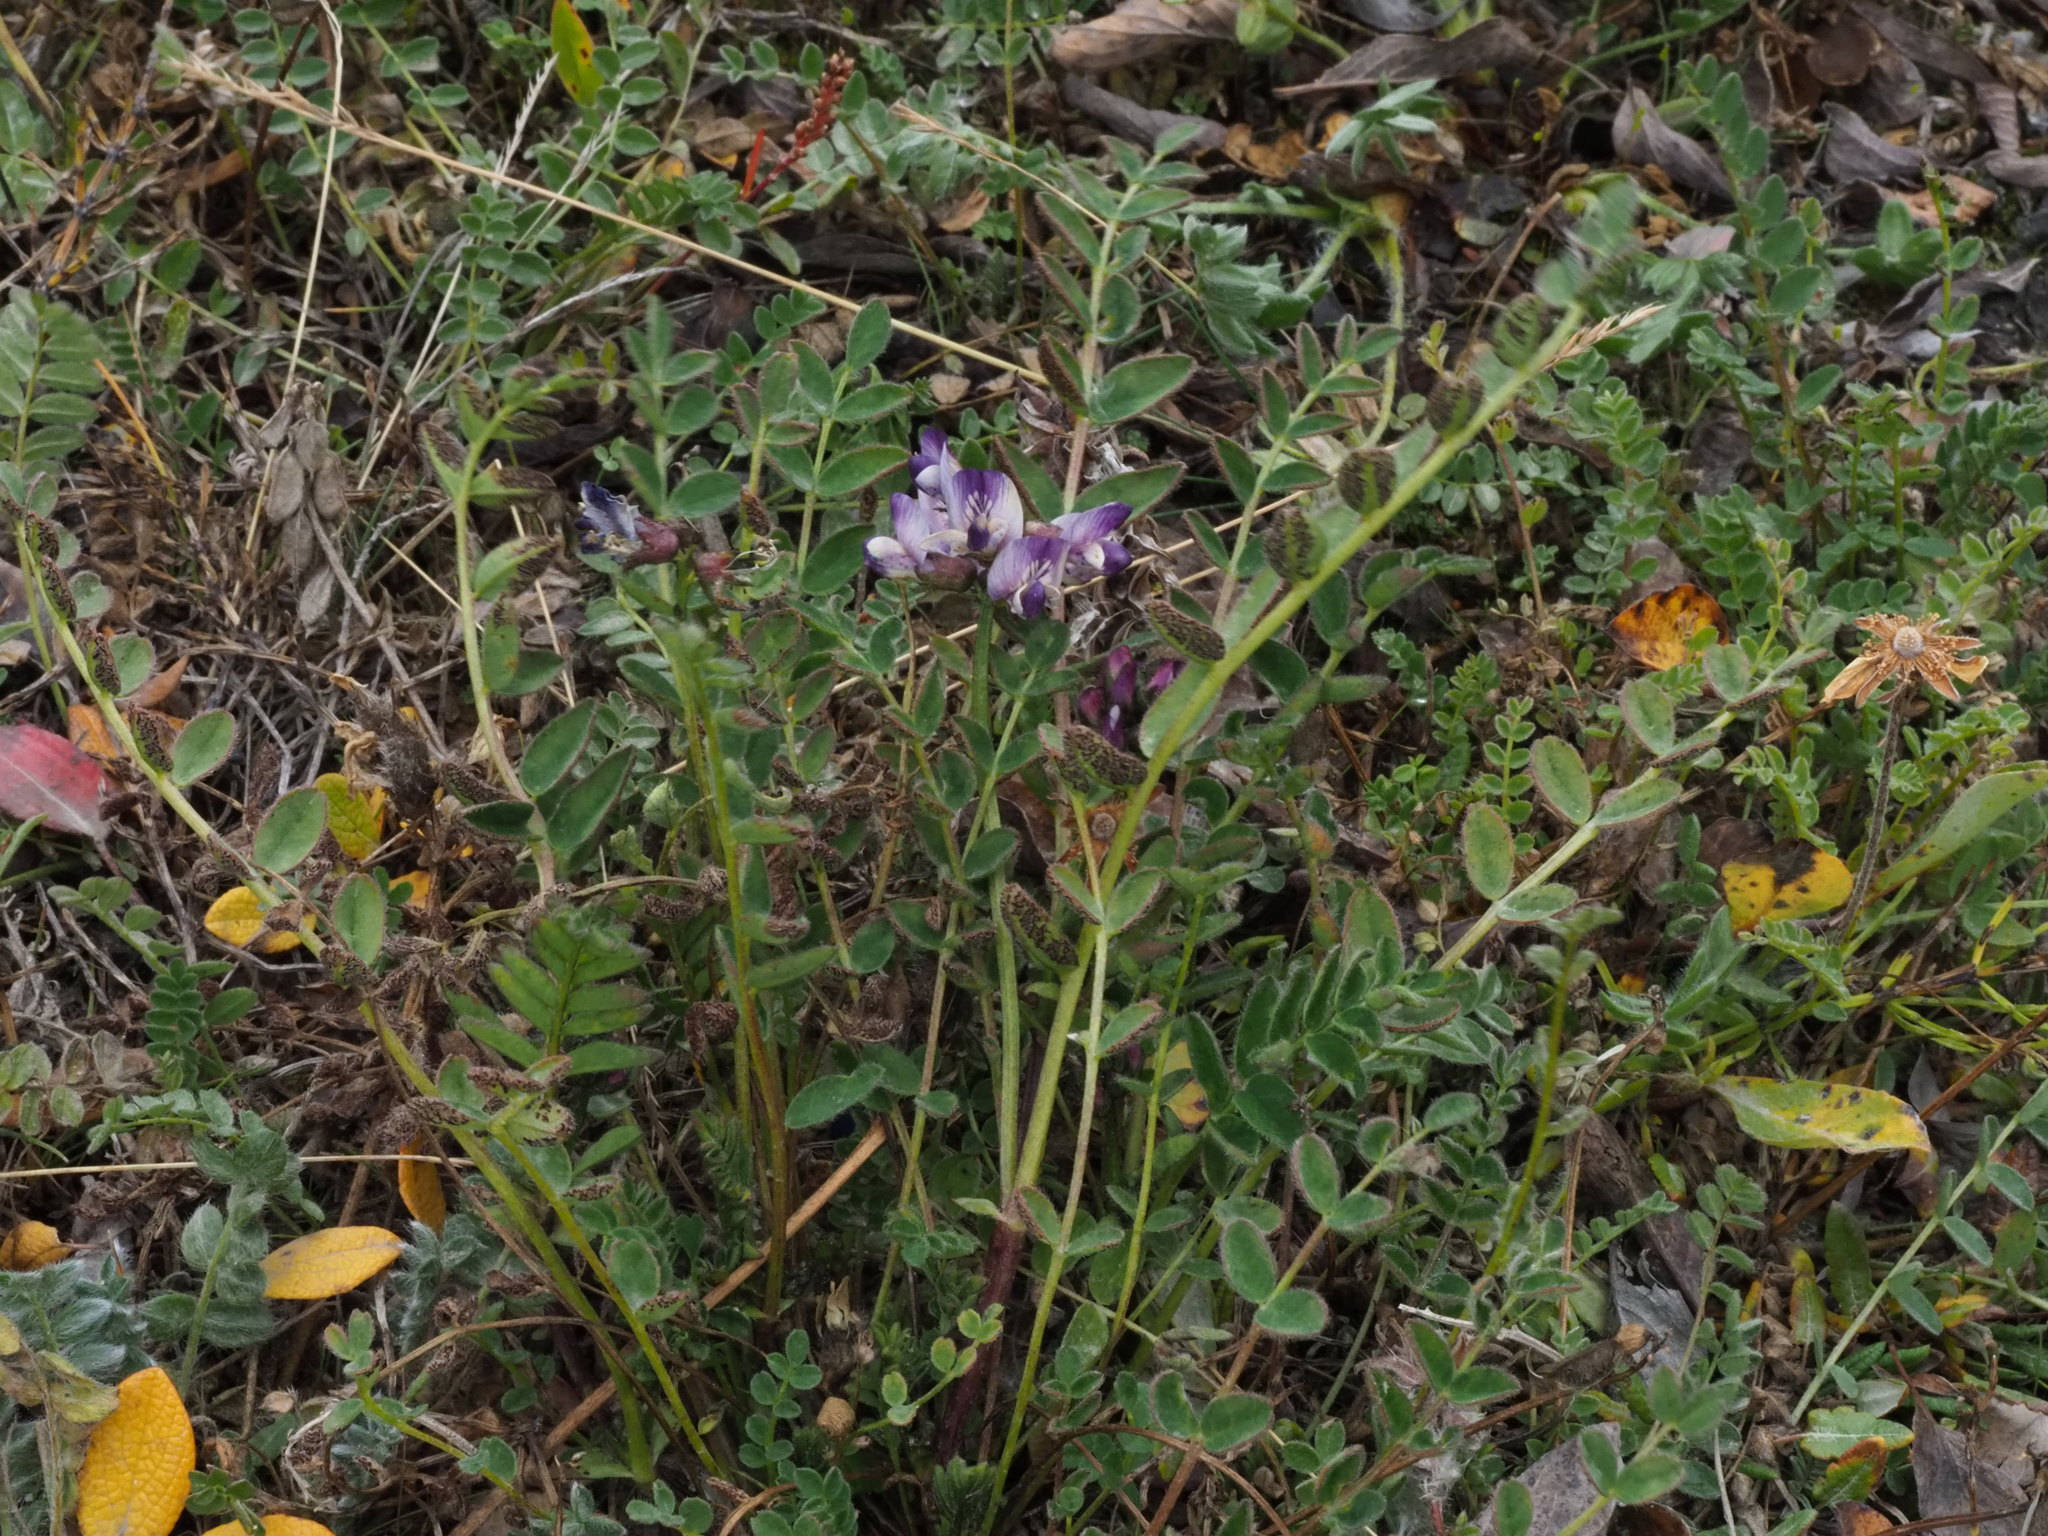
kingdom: Plantae
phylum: Tracheophyta
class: Magnoliopsida
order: Fabales
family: Fabaceae
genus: Astragalus
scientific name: Astragalus alpinus
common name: Alpine milk-vetch
